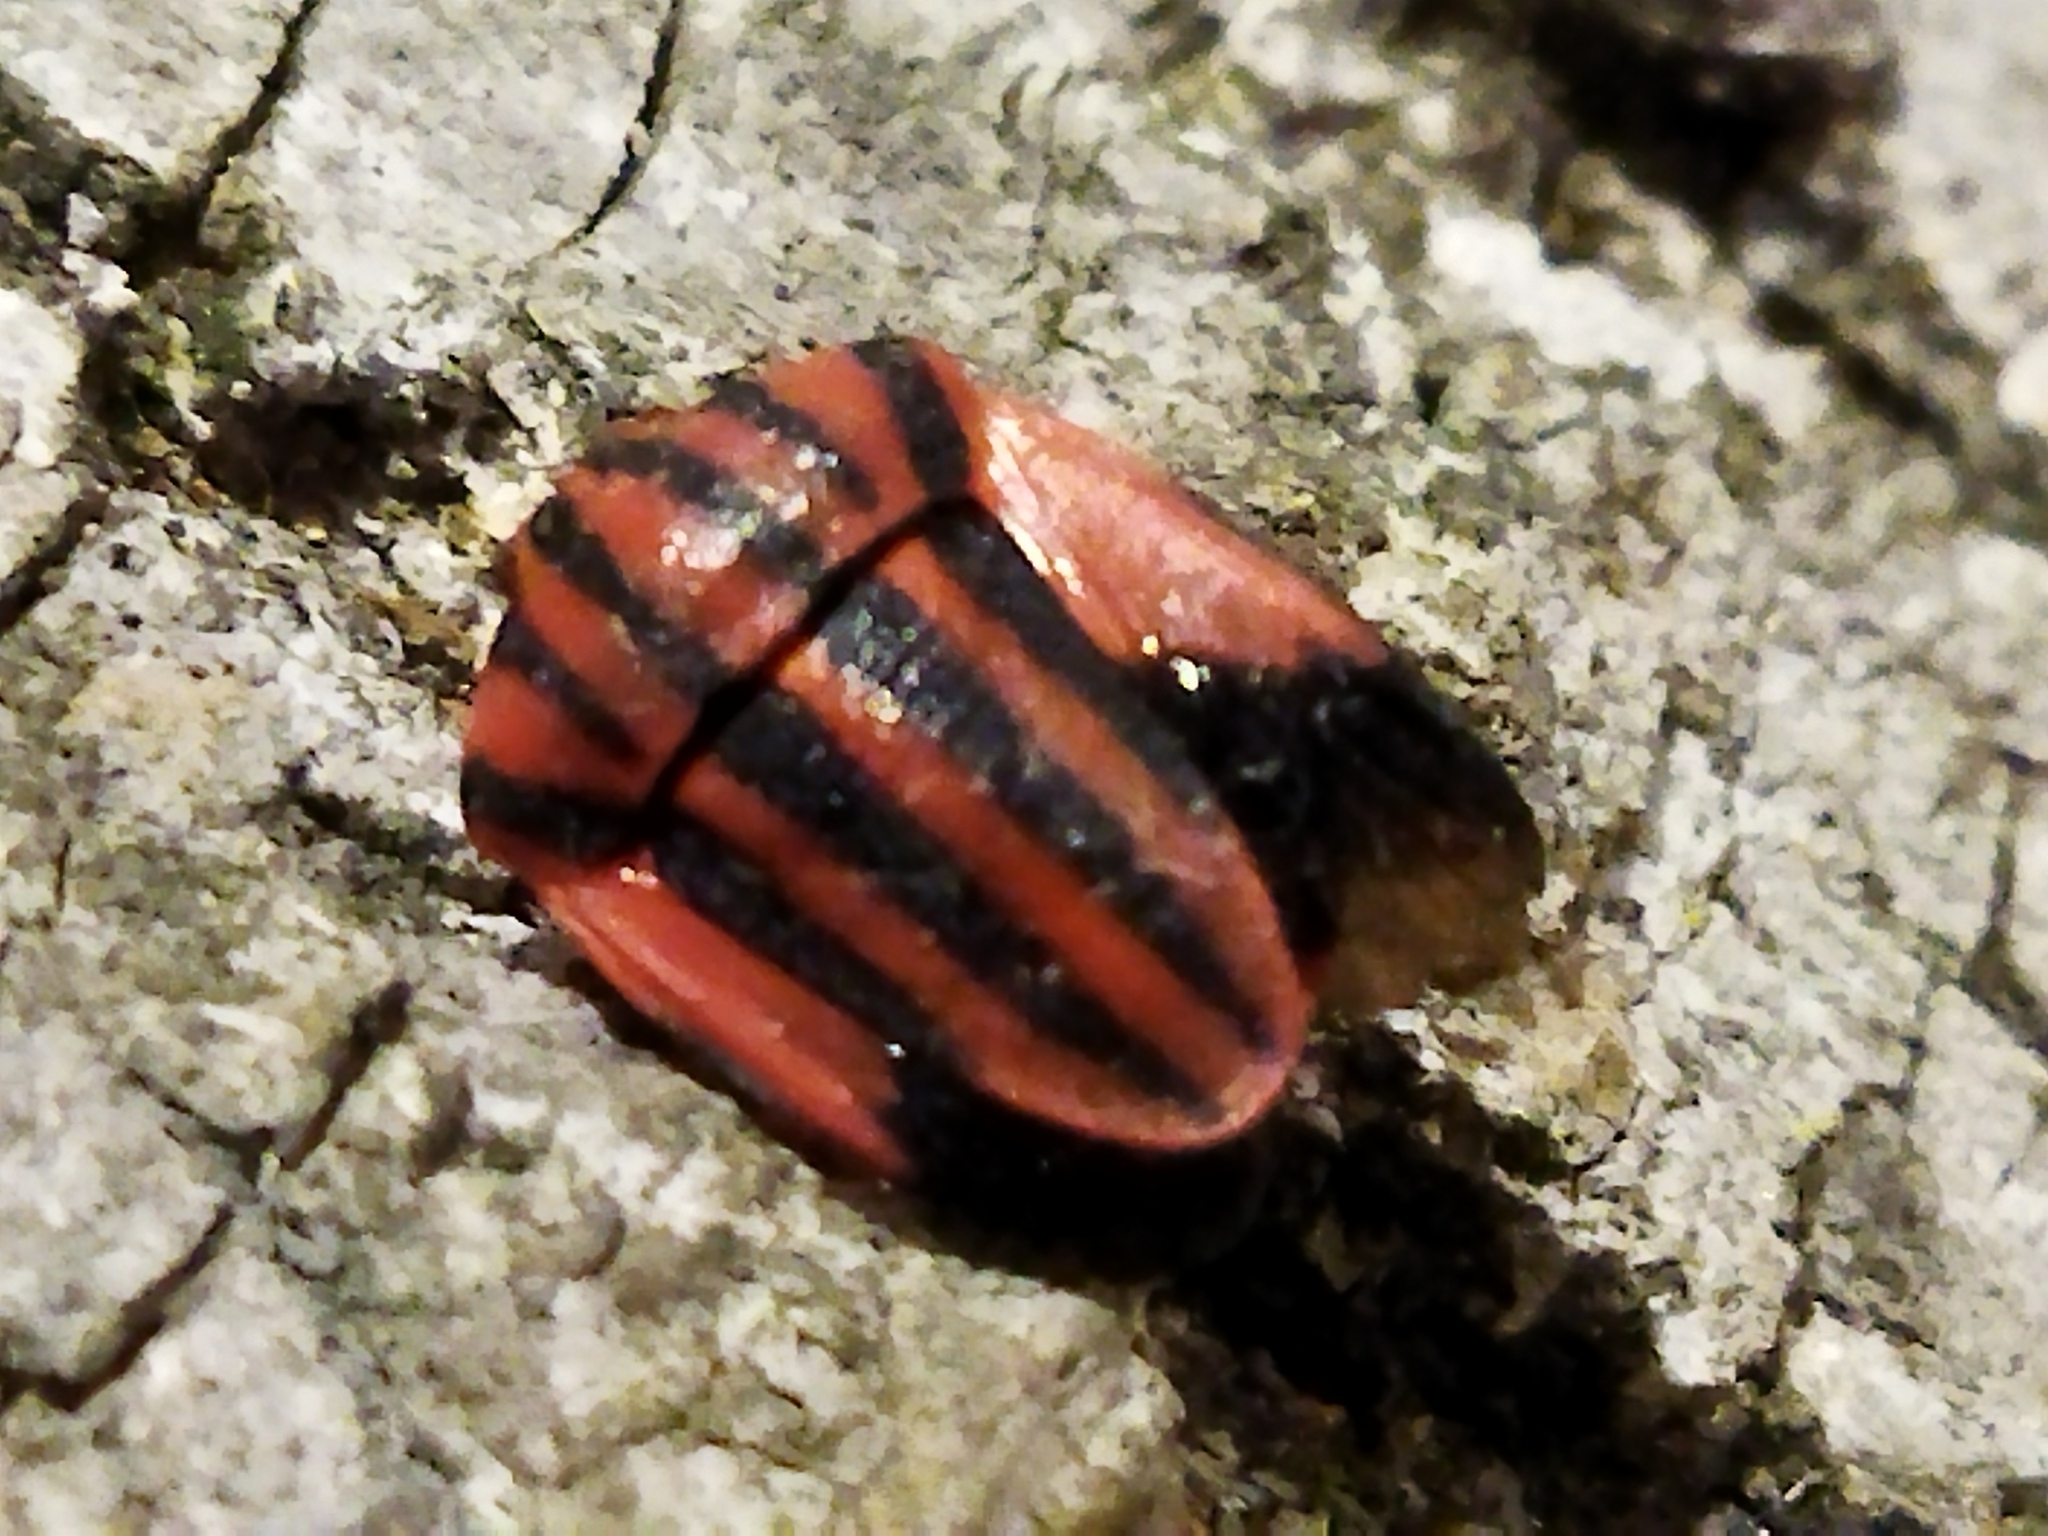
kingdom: Animalia
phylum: Arthropoda
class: Insecta
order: Hemiptera
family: Pentatomidae
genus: Graphosoma
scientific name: Graphosoma italicum
